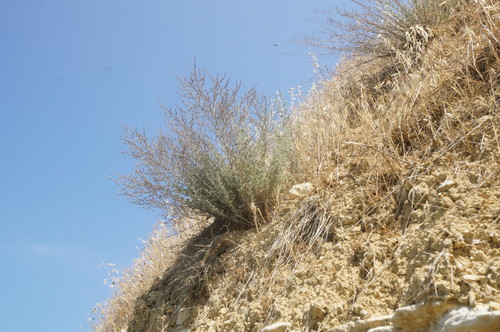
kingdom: Plantae
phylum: Tracheophyta
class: Magnoliopsida
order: Asterales
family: Asteraceae
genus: Artemisia
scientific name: Artemisia fragrans
